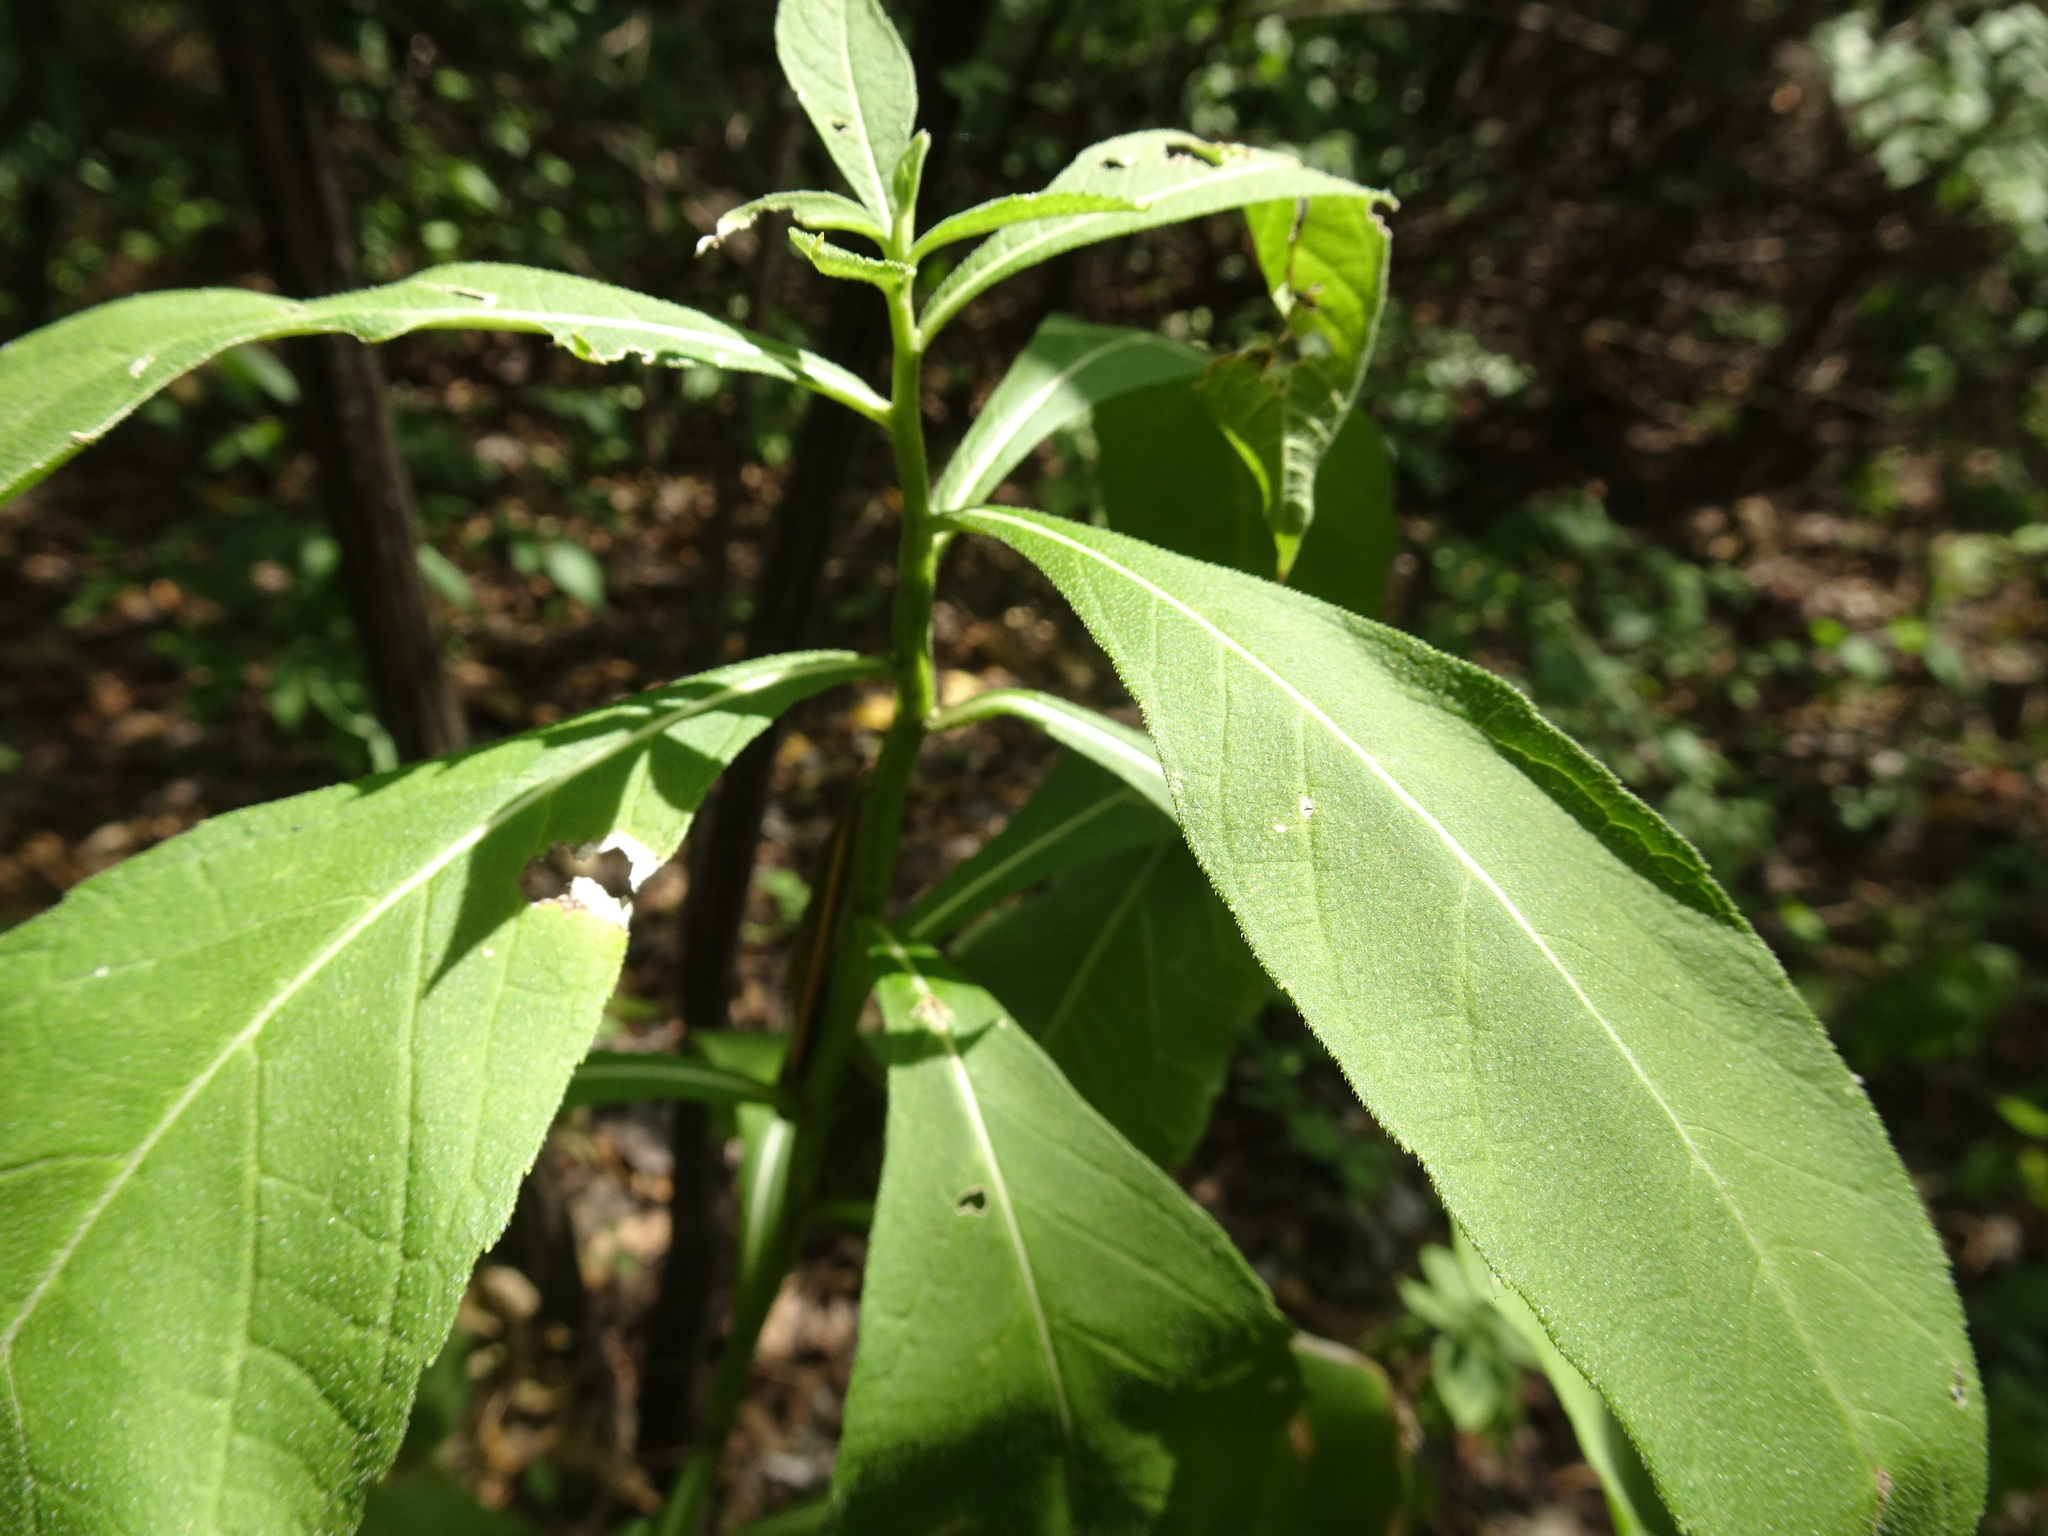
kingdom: Plantae
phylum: Tracheophyta
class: Magnoliopsida
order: Asterales
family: Asteraceae
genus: Verbesina
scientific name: Verbesina alternifolia
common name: Wingstem
